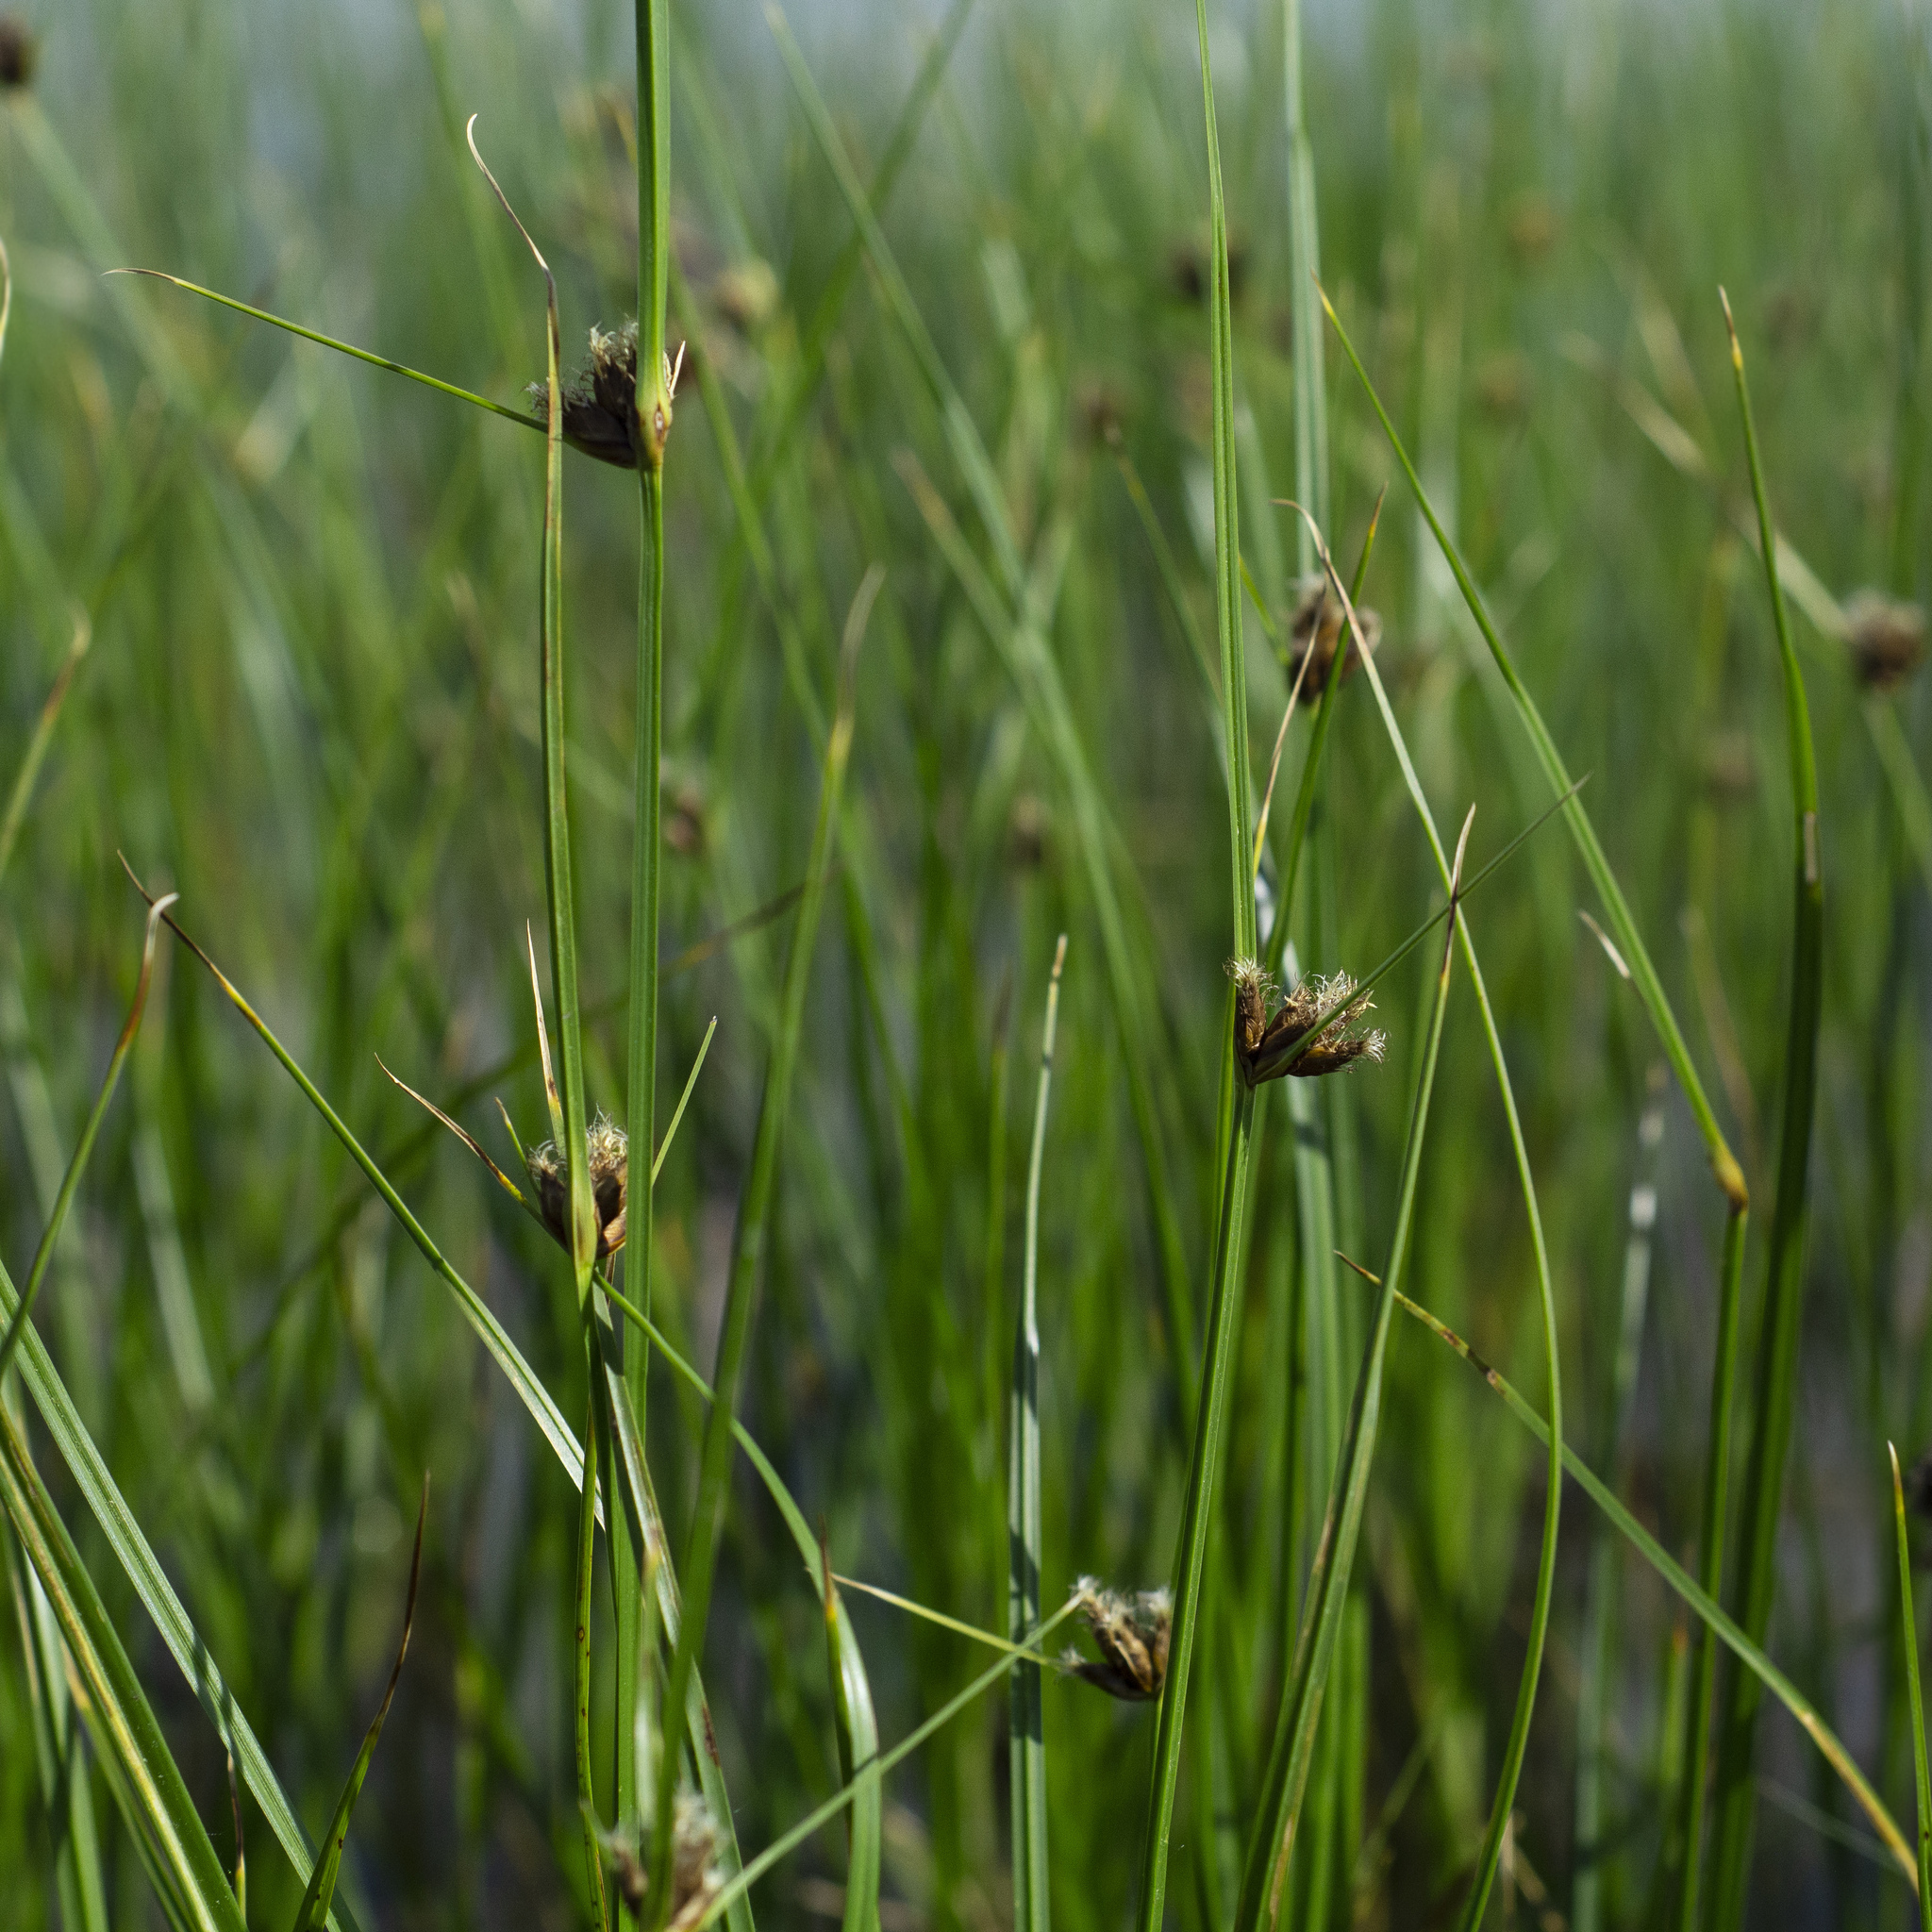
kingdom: Plantae
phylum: Tracheophyta
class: Liliopsida
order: Poales
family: Cyperaceae
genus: Bolboschoenus
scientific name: Bolboschoenus maritimus
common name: Sea club-rush
